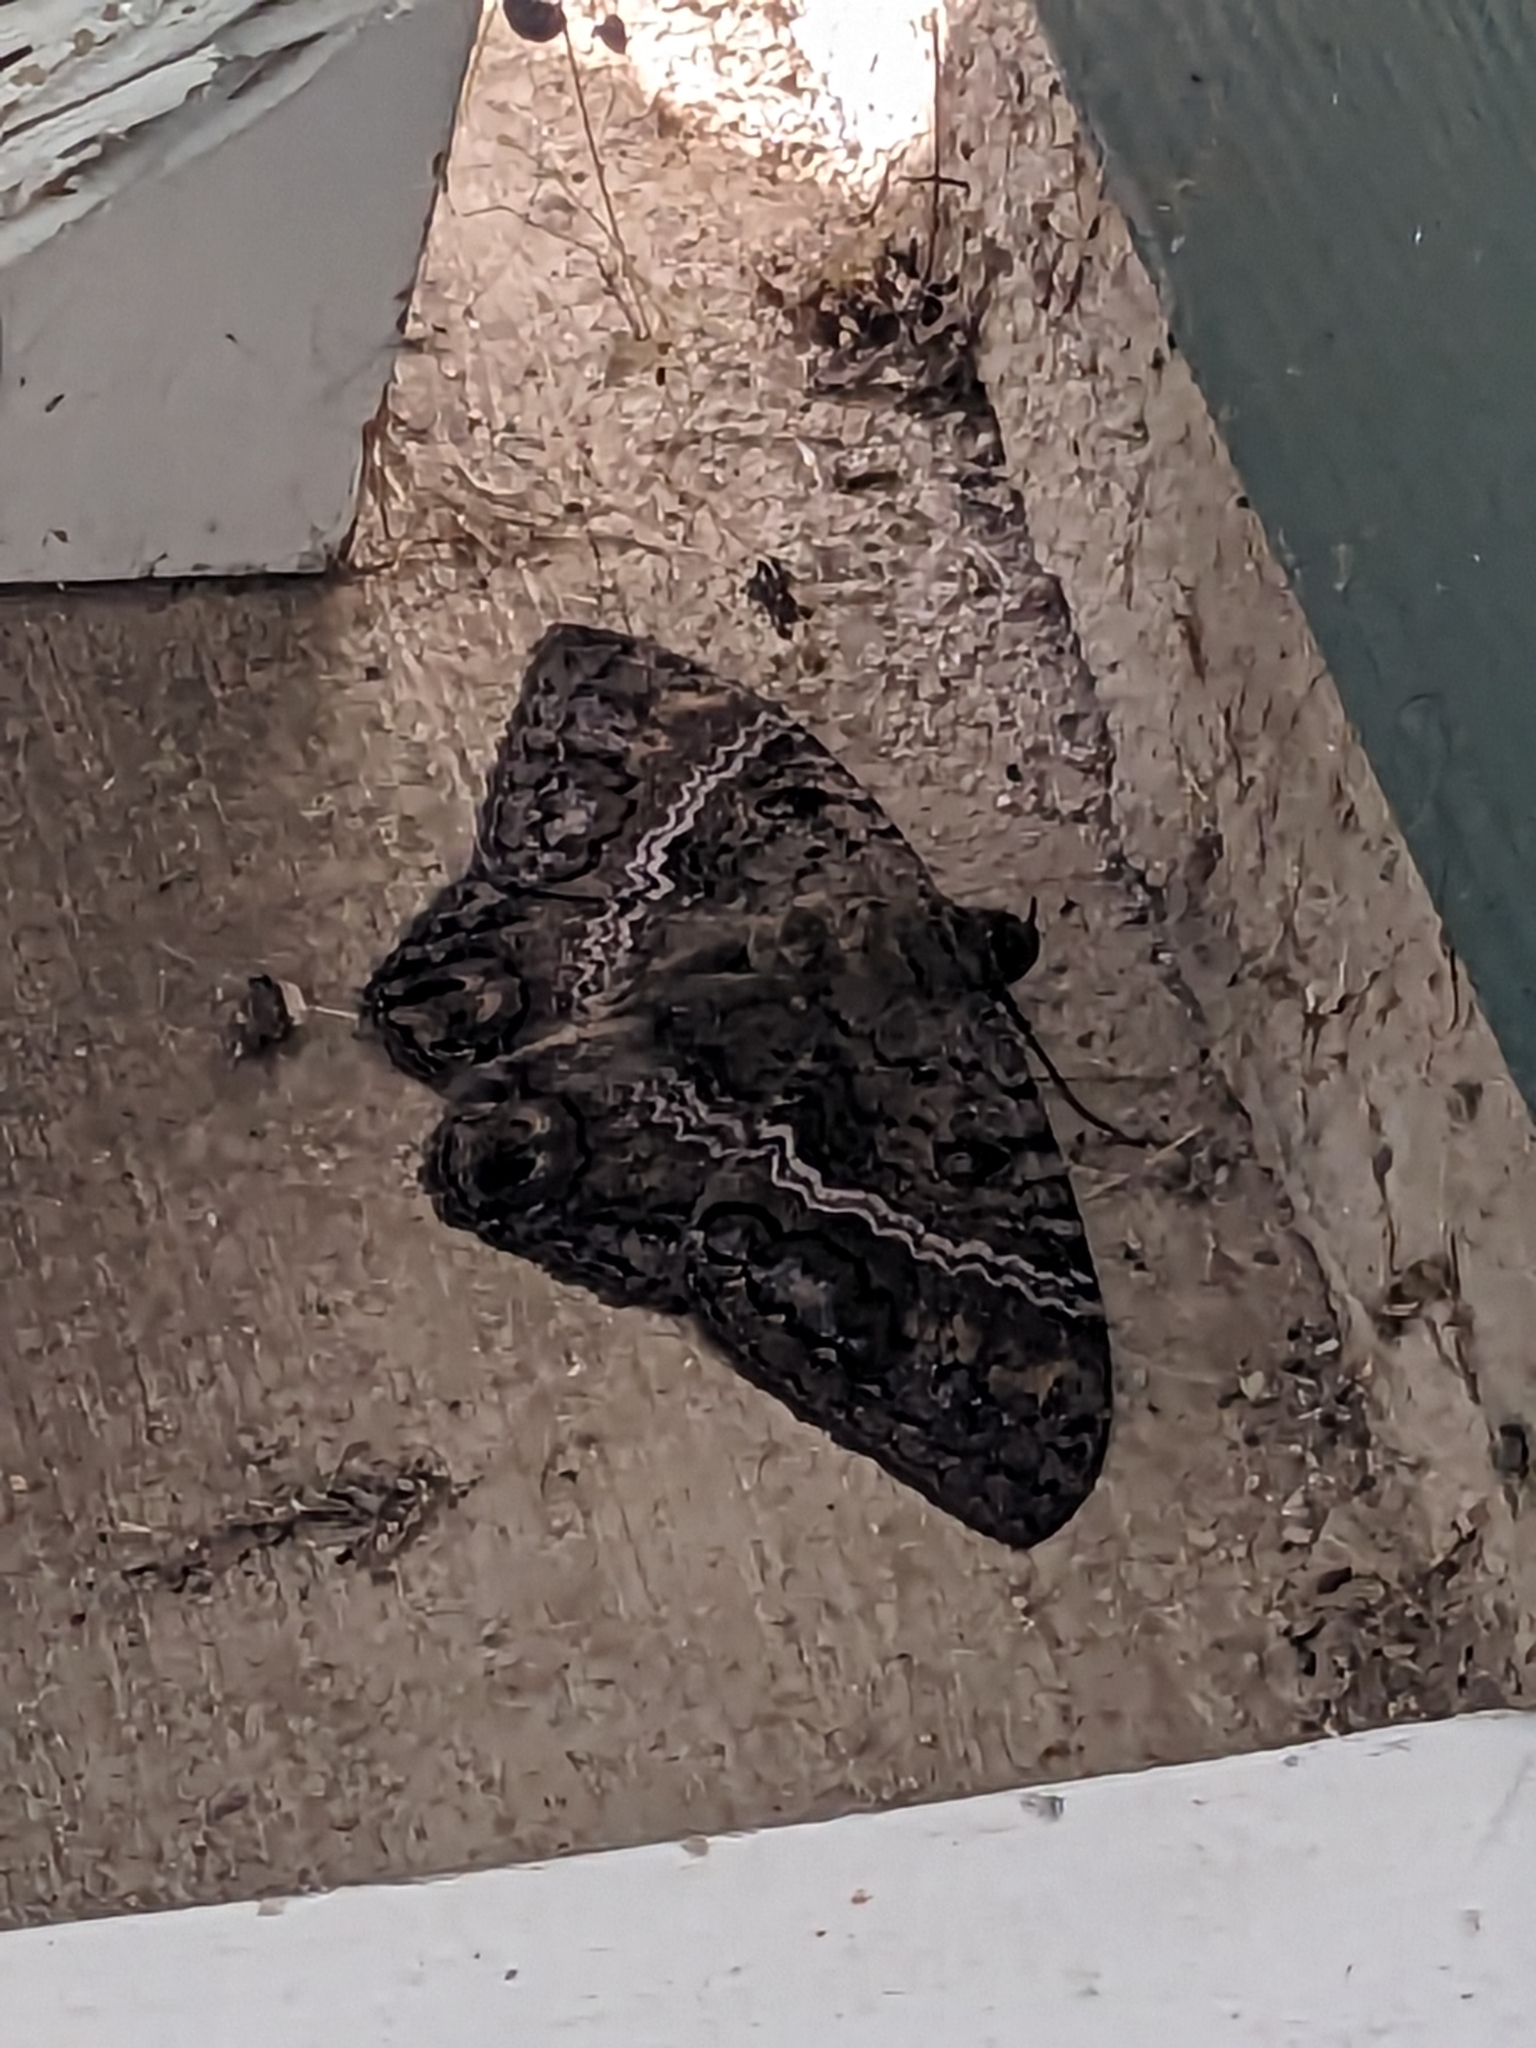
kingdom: Animalia
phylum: Arthropoda
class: Insecta
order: Lepidoptera
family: Erebidae
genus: Ascalapha
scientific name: Ascalapha odorata
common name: Black witch
